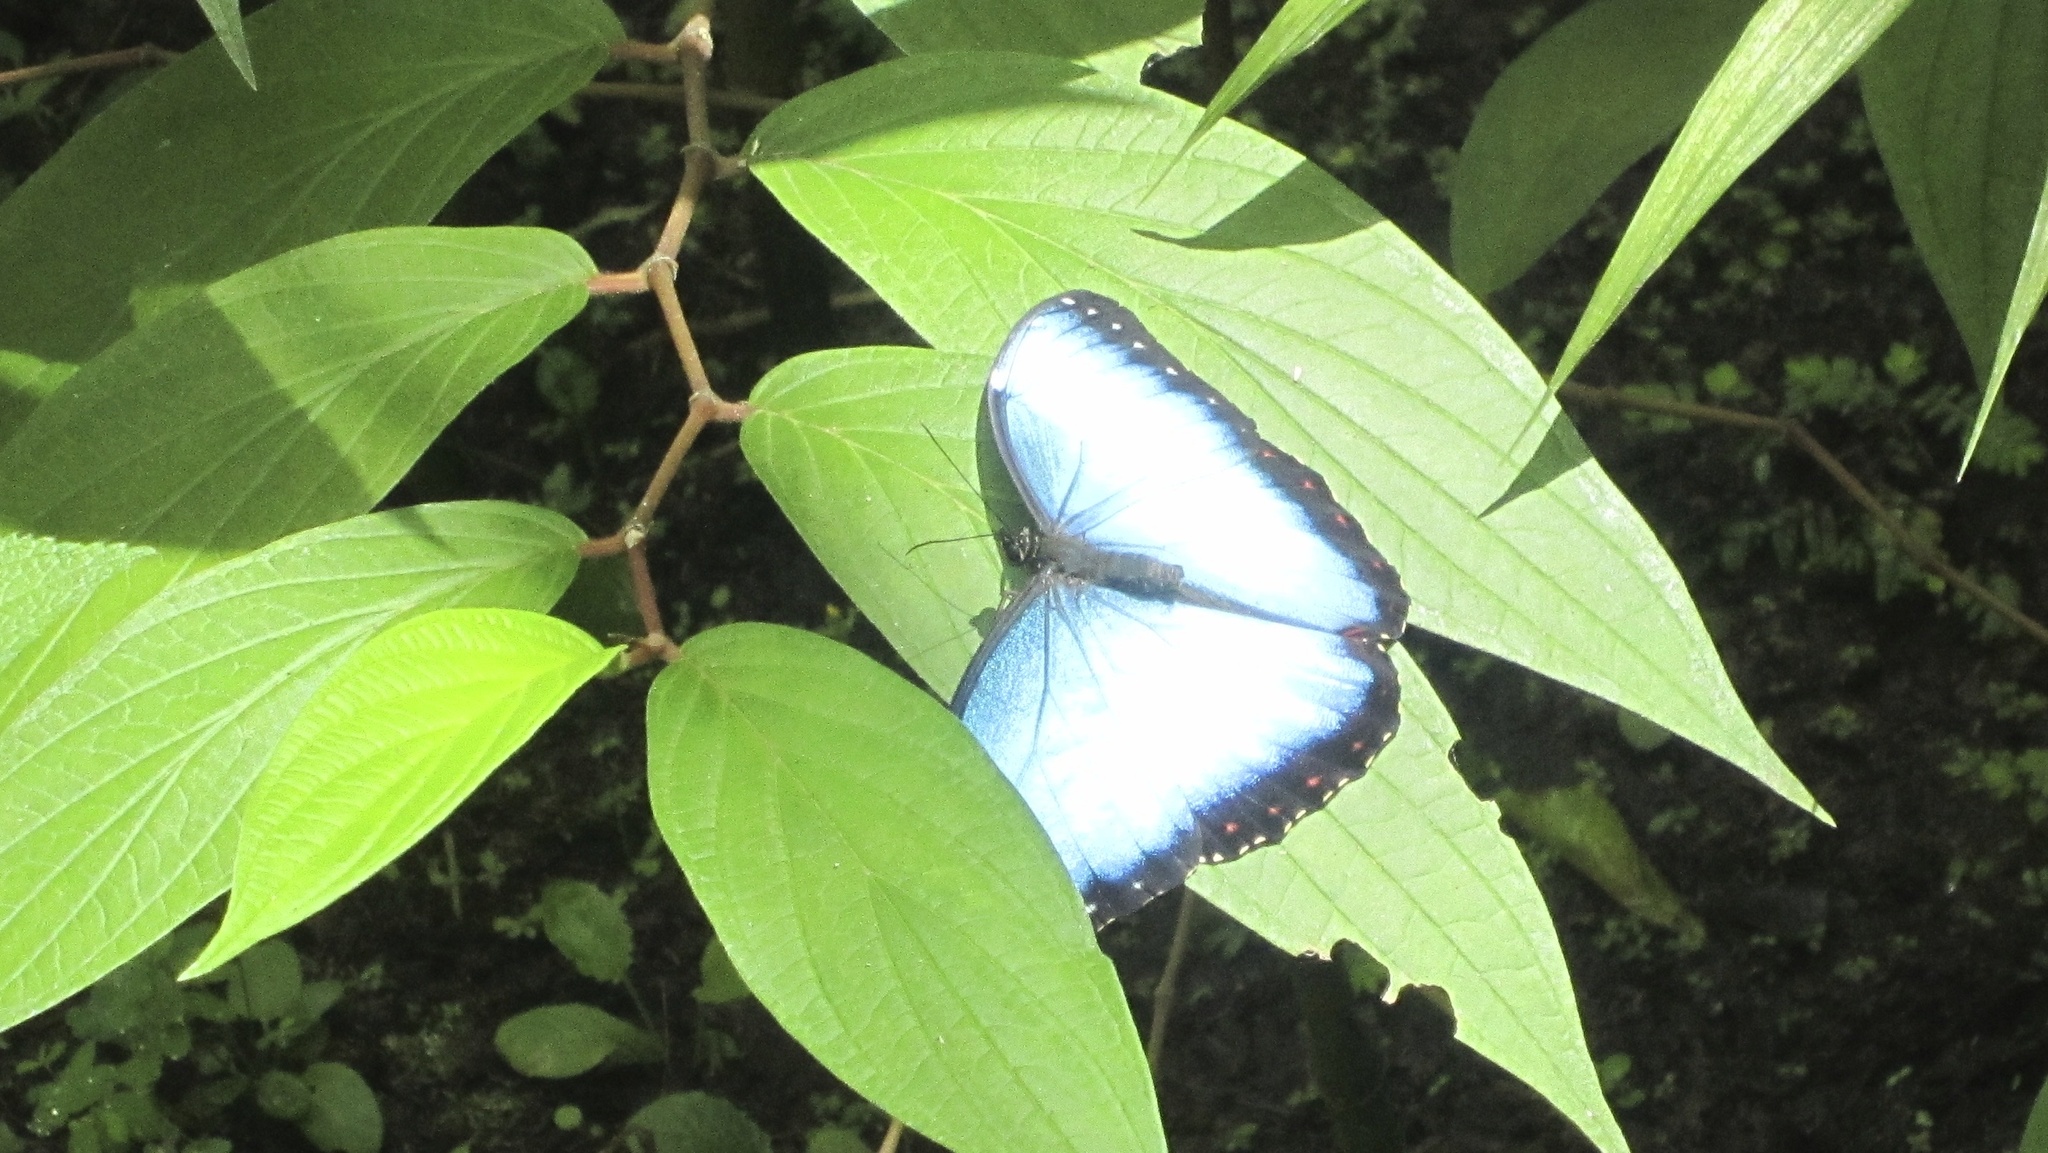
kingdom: Animalia
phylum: Arthropoda
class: Insecta
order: Lepidoptera
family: Nymphalidae
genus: Morpho
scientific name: Morpho helenor
